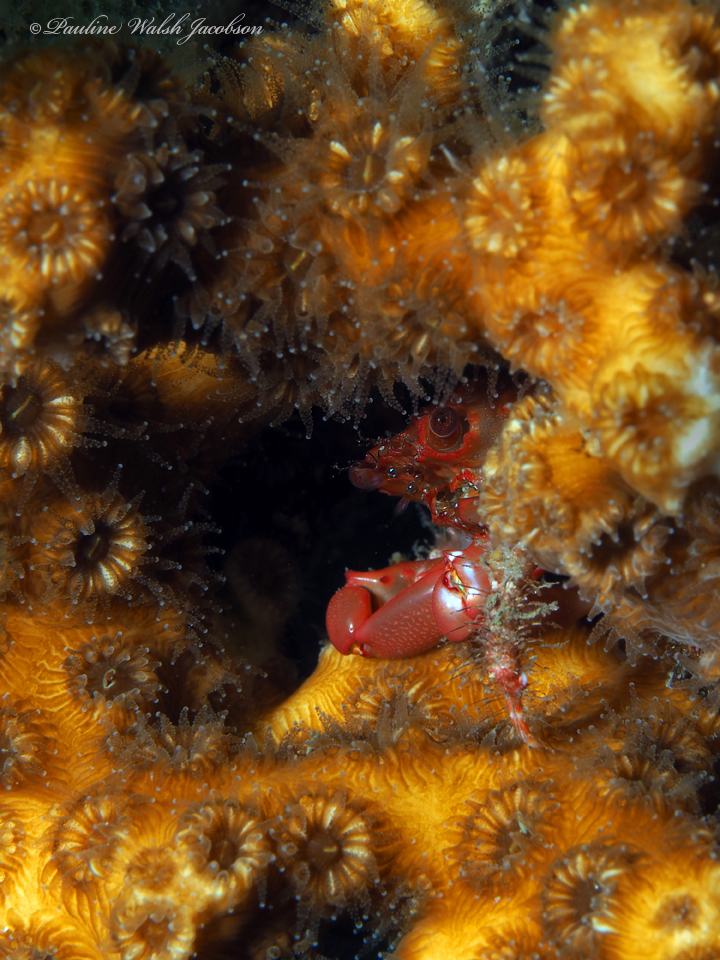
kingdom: Animalia
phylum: Arthropoda
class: Malacostraca
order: Decapoda
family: Mithracidae
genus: Mithraculus
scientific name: Mithraculus forceps
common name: Red-ridged clinging crab
